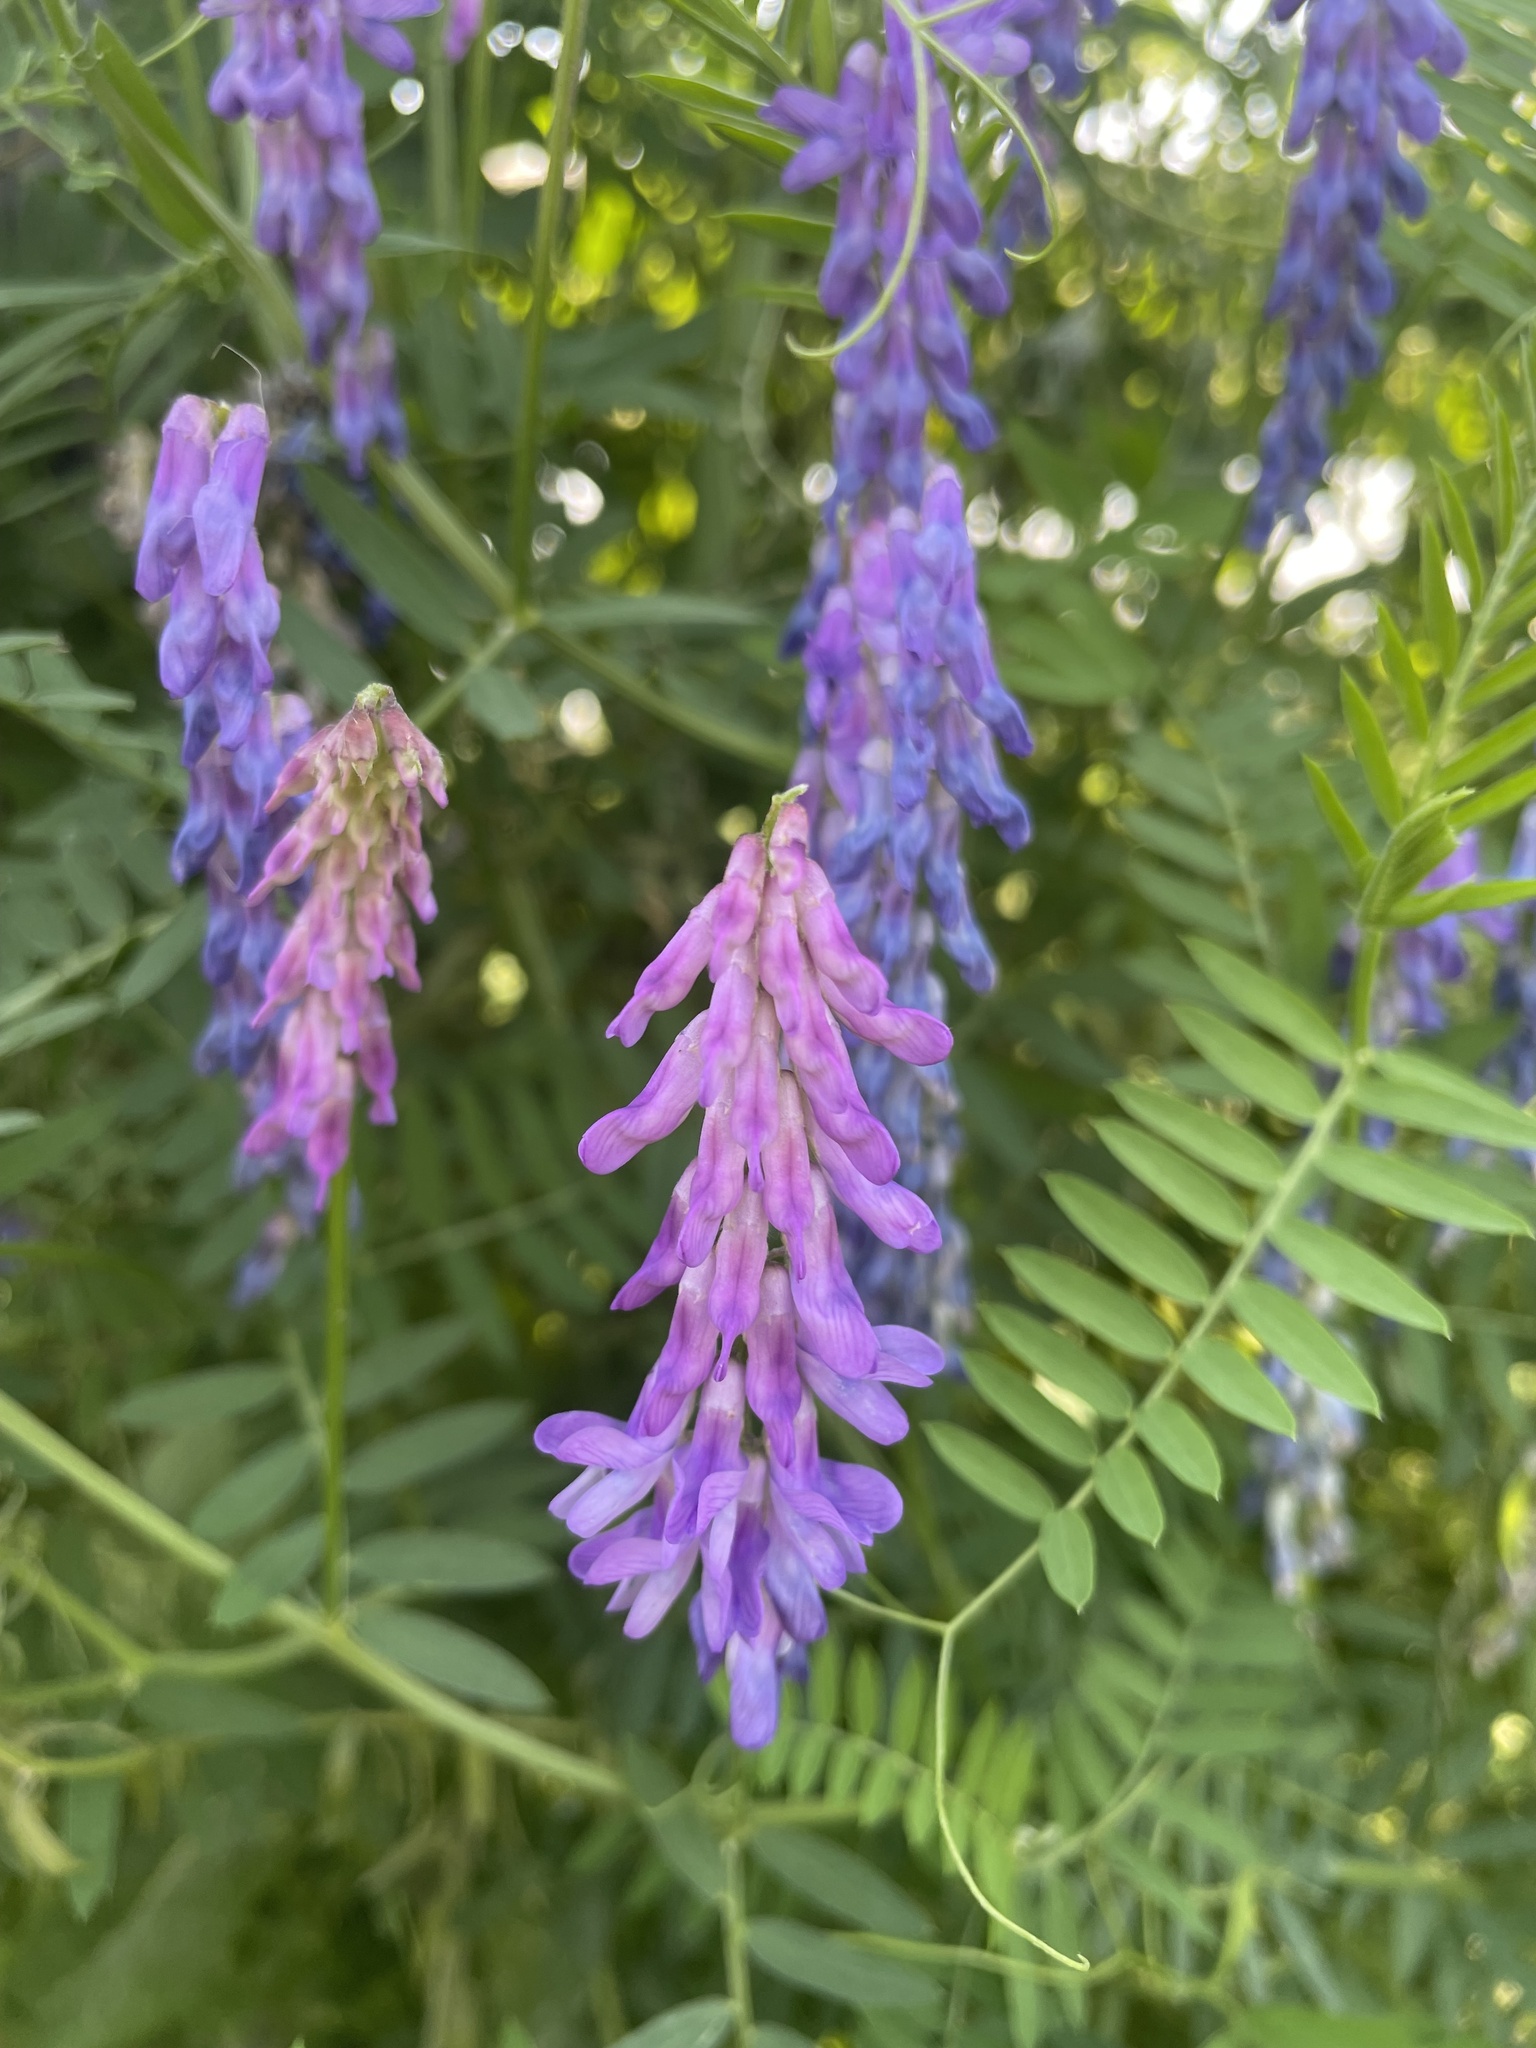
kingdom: Plantae
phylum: Tracheophyta
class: Magnoliopsida
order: Fabales
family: Fabaceae
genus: Vicia
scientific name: Vicia cracca
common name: Bird vetch
